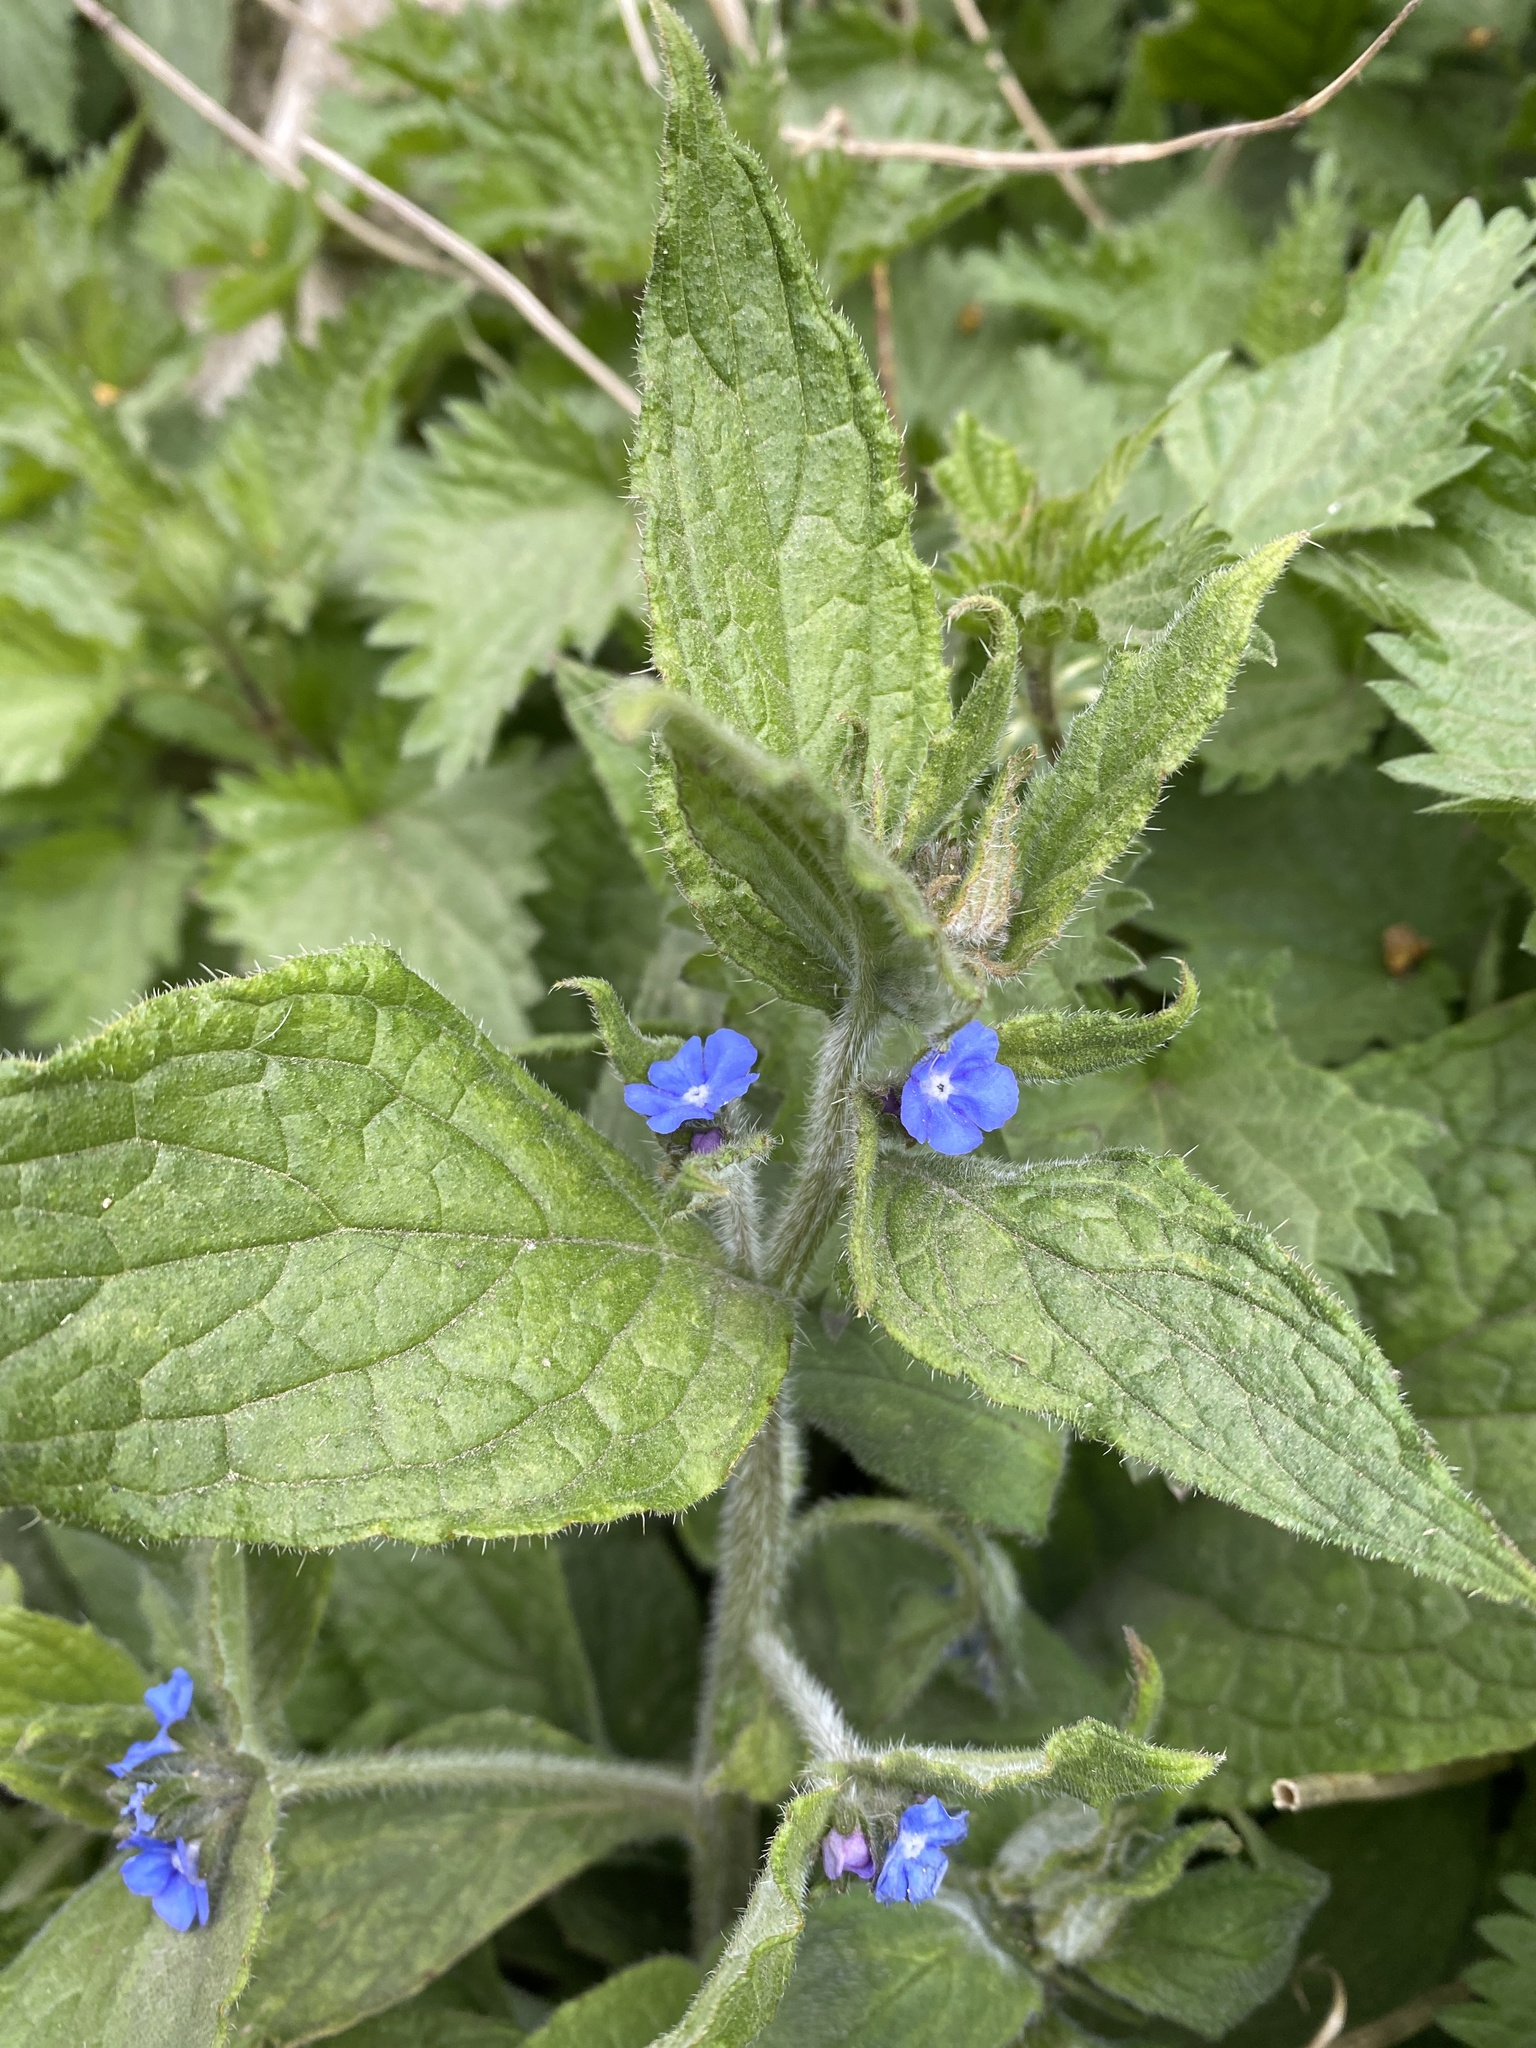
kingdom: Plantae
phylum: Tracheophyta
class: Magnoliopsida
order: Boraginales
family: Boraginaceae
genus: Pentaglottis
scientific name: Pentaglottis sempervirens
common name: Green alkanet
